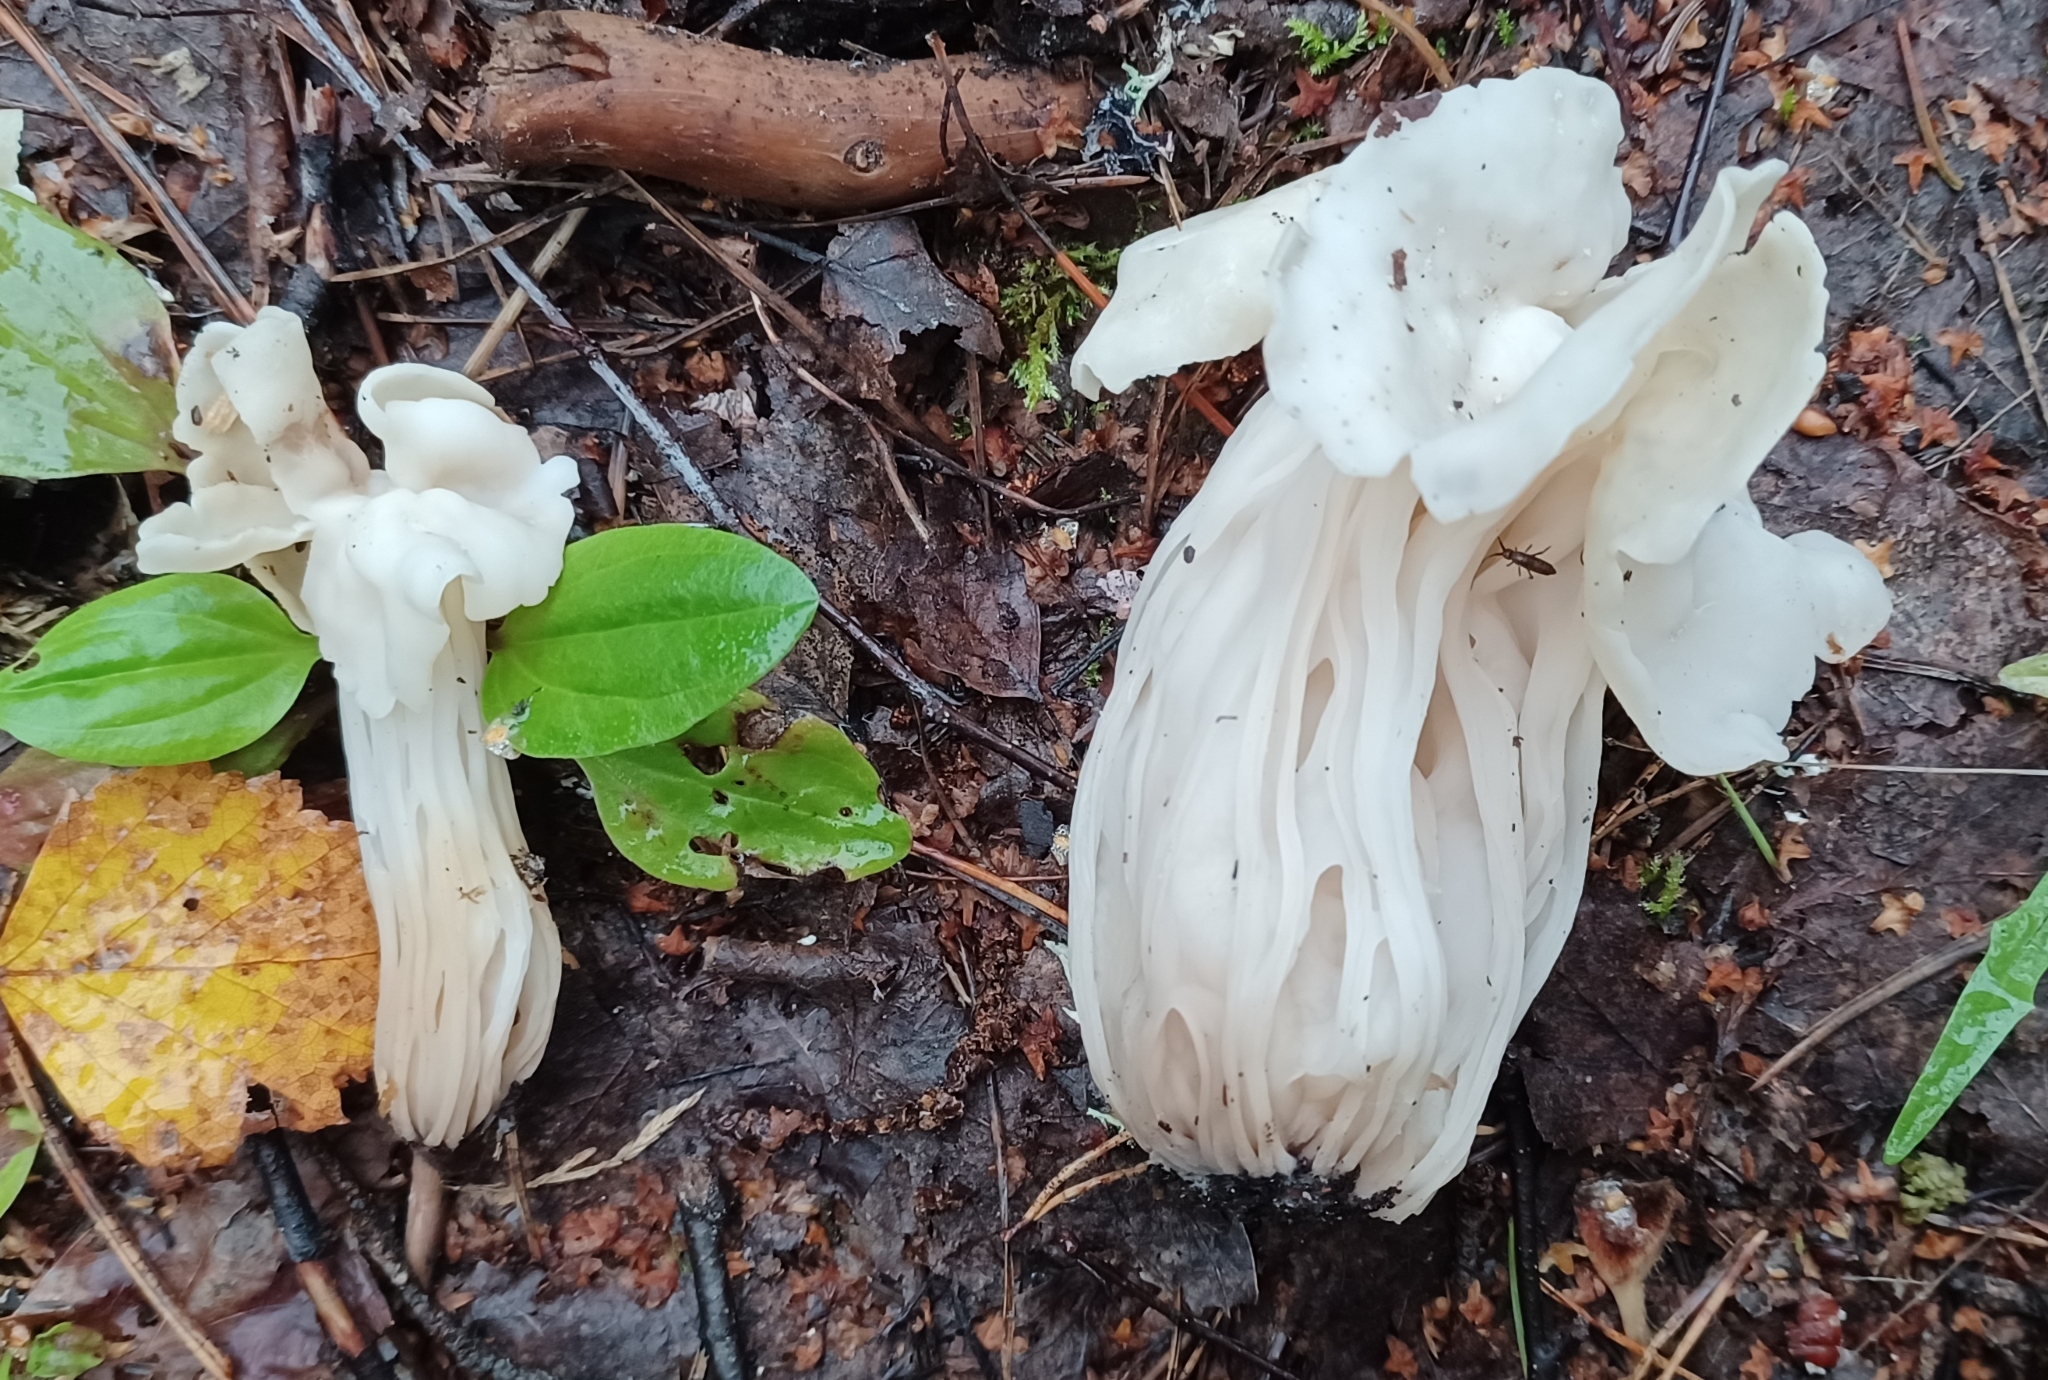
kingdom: Fungi
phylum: Ascomycota
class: Pezizomycetes
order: Pezizales
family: Helvellaceae
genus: Helvella
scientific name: Helvella crispa
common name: White saddle
